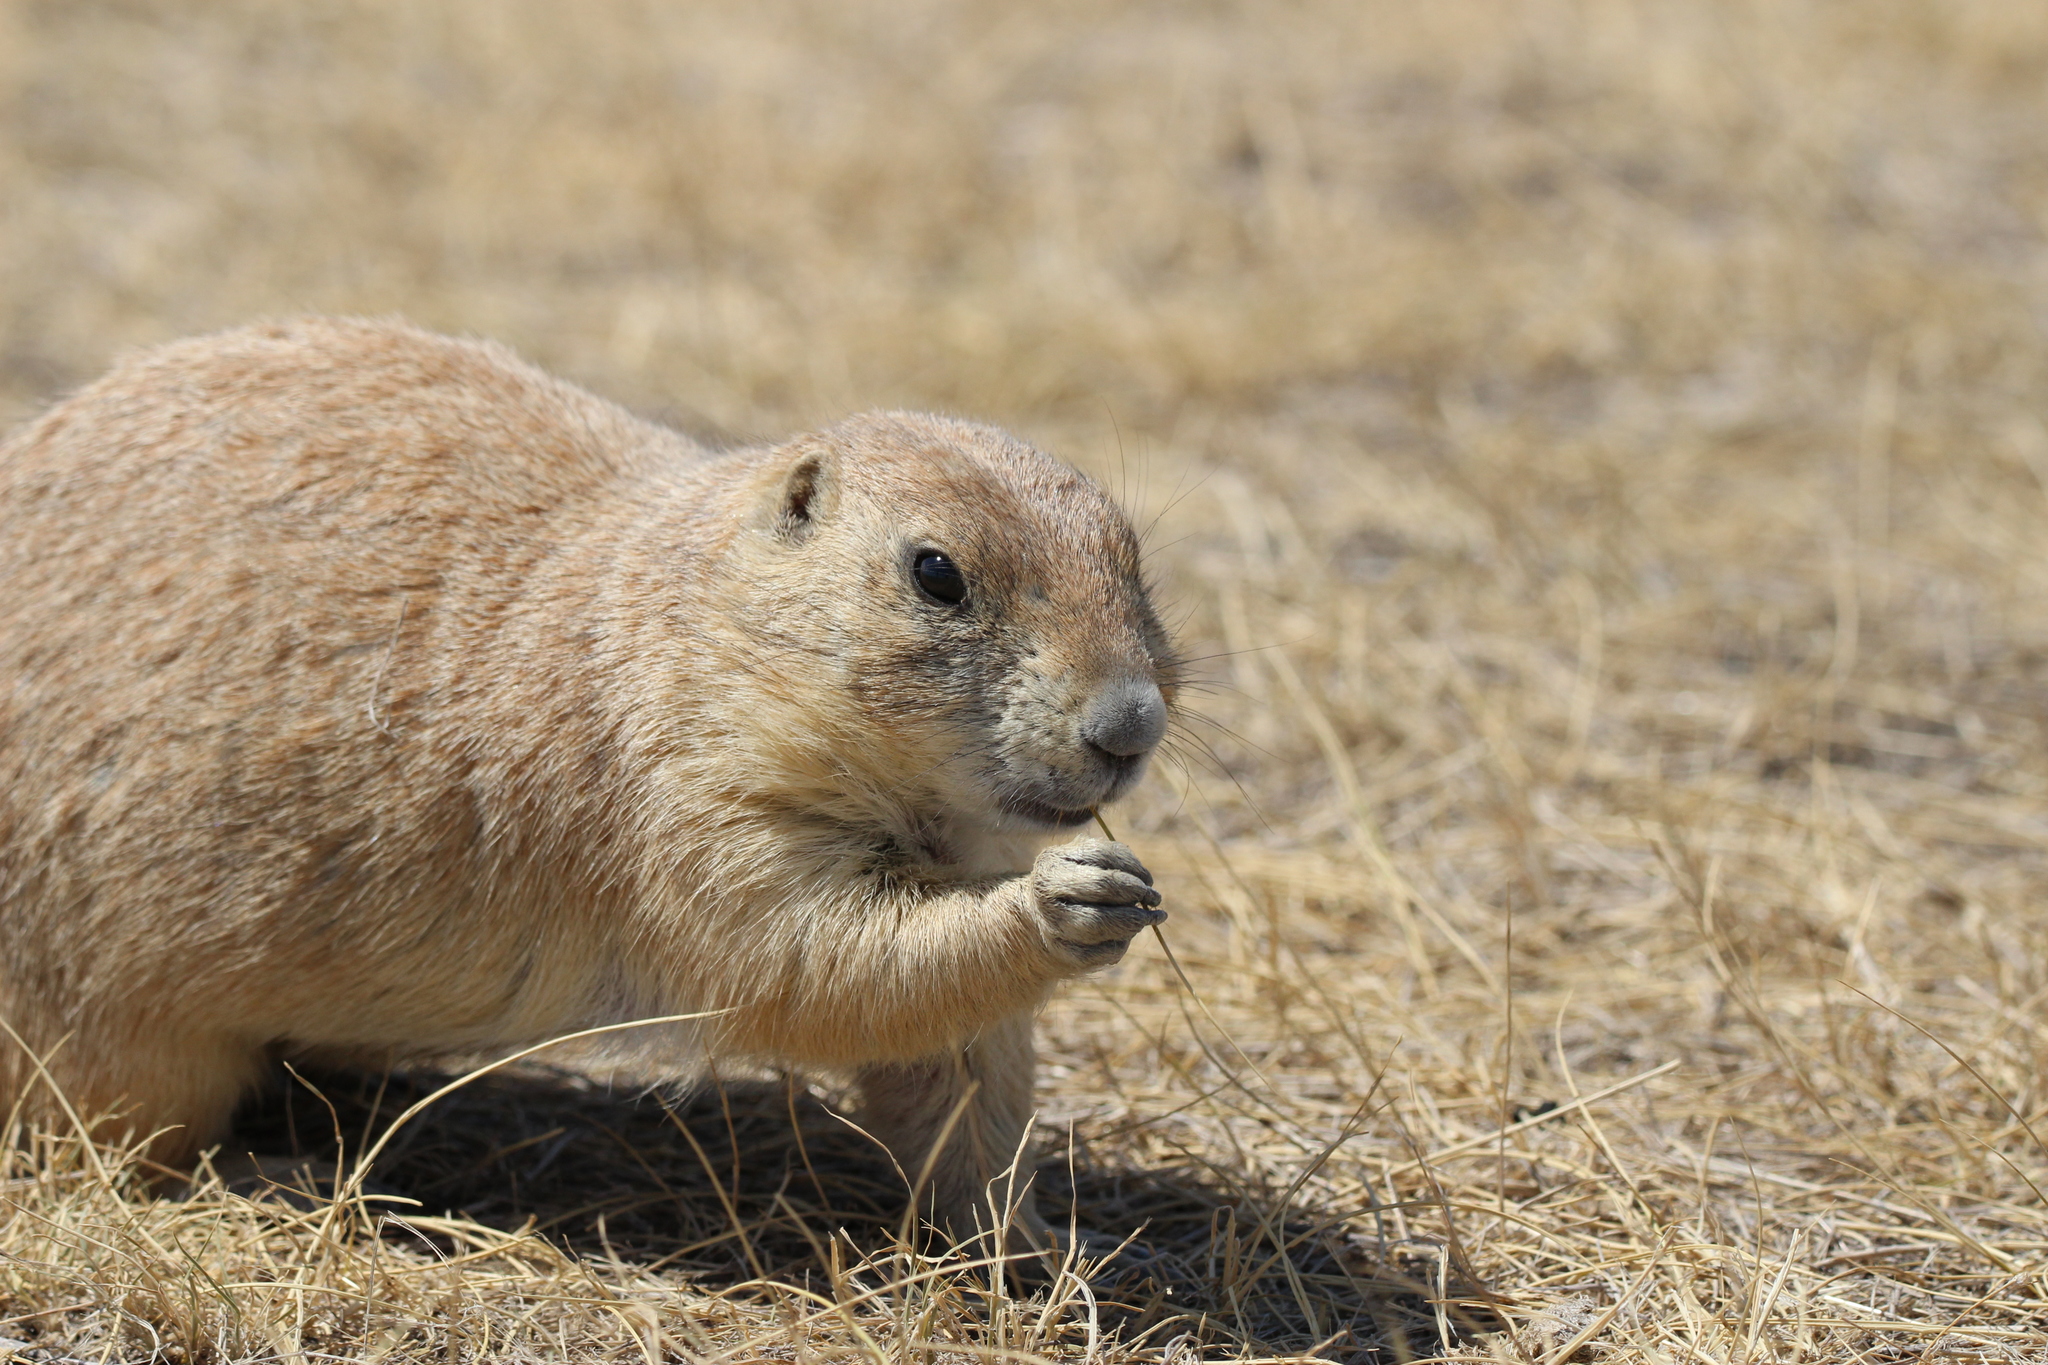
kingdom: Animalia
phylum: Chordata
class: Mammalia
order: Rodentia
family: Sciuridae
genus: Cynomys
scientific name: Cynomys ludovicianus
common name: Black-tailed prairie dog
